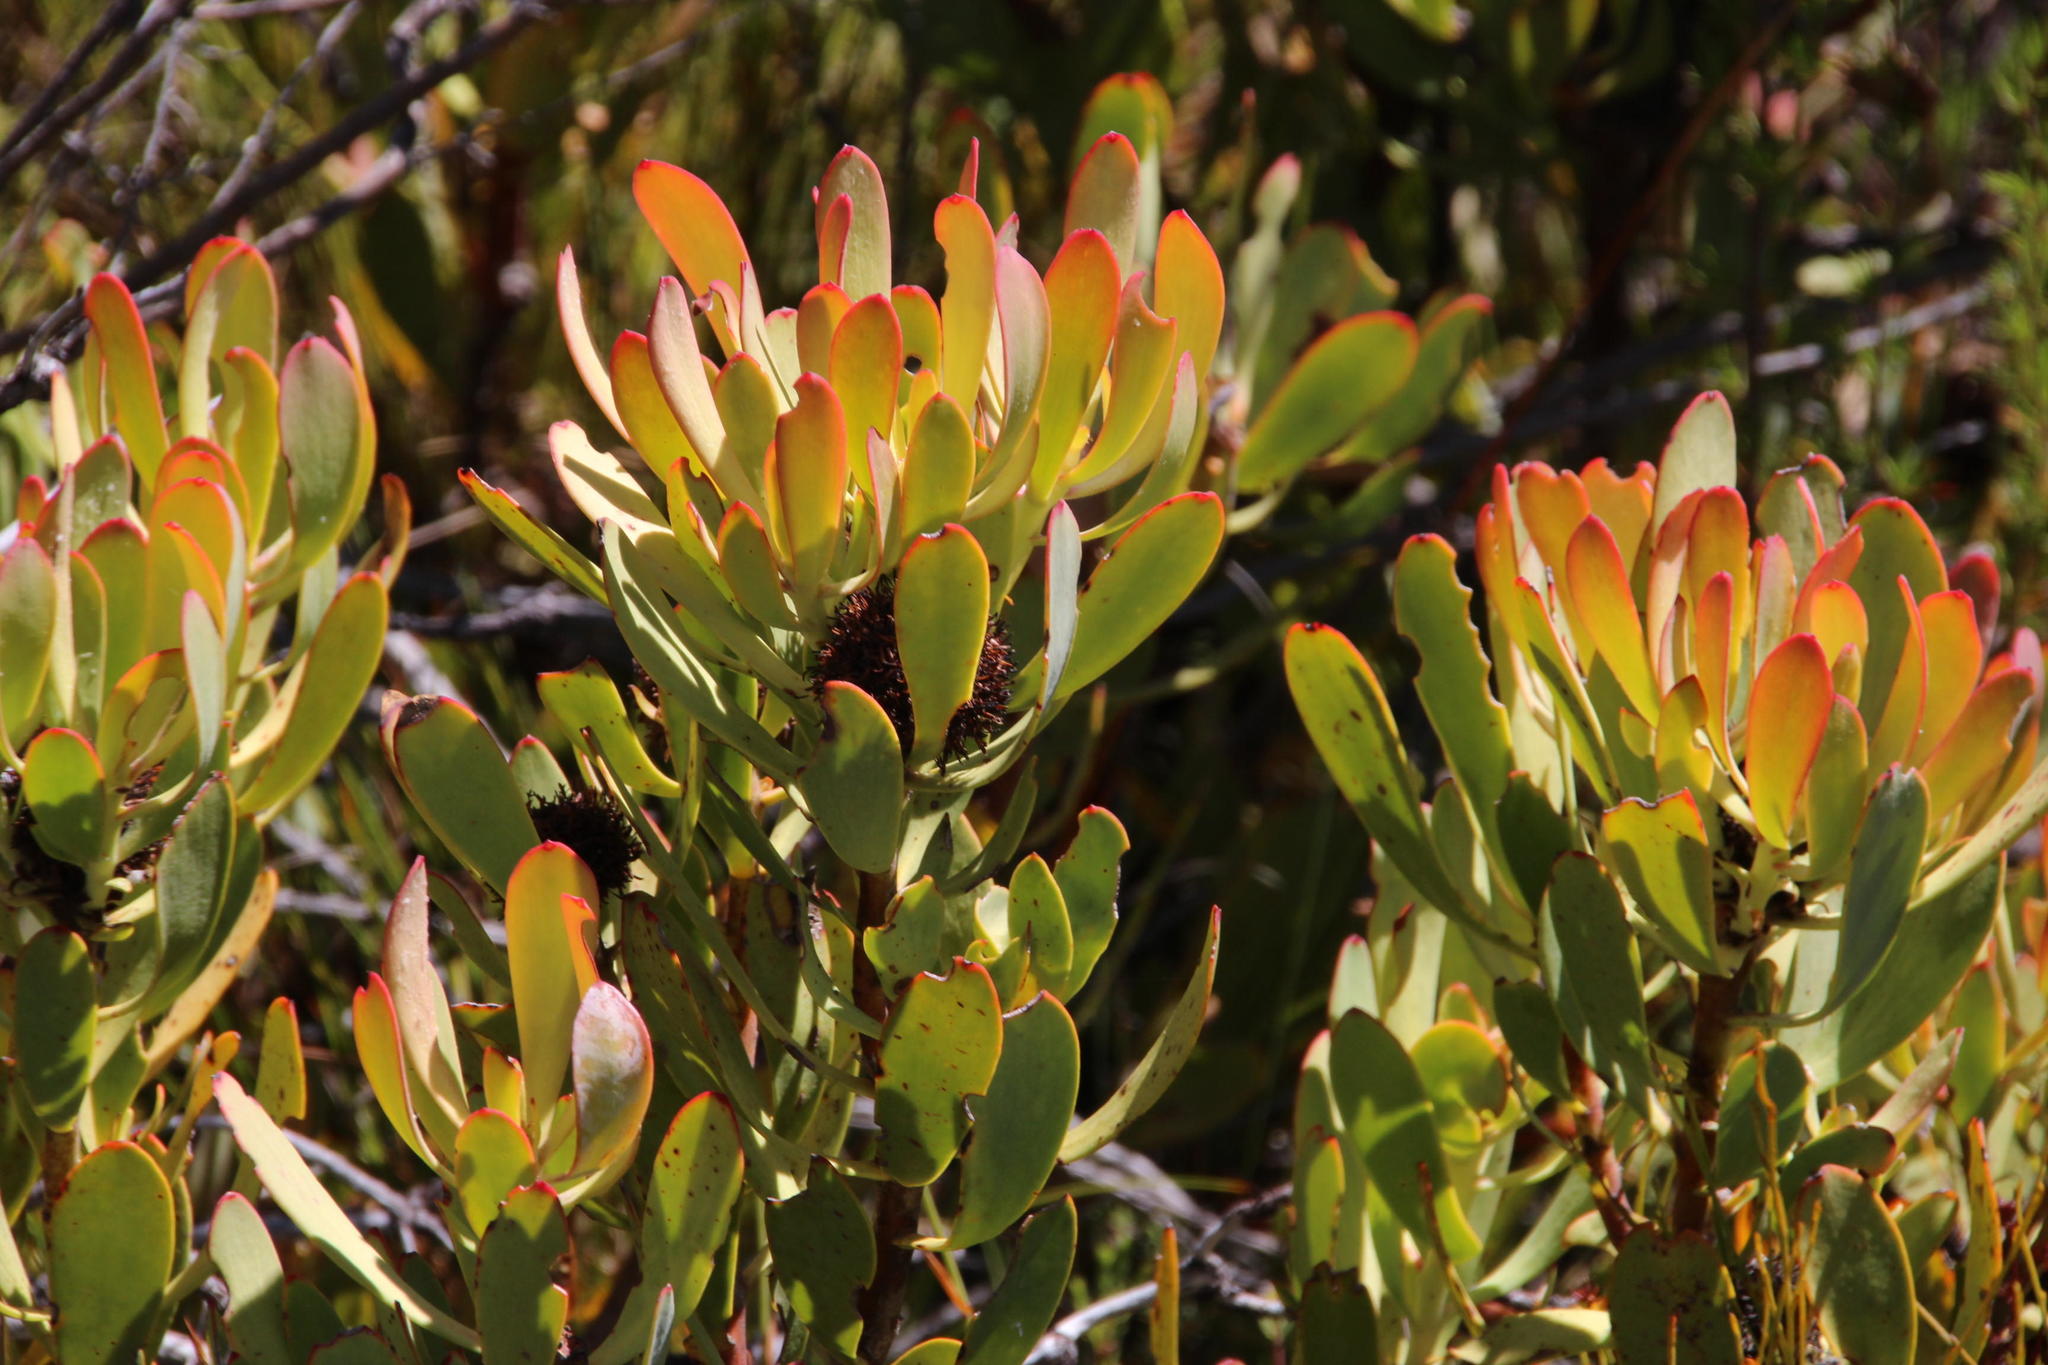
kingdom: Plantae
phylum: Tracheophyta
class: Magnoliopsida
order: Proteales
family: Proteaceae
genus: Leucadendron
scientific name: Leucadendron arcuatum
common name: Red-edge conebush
